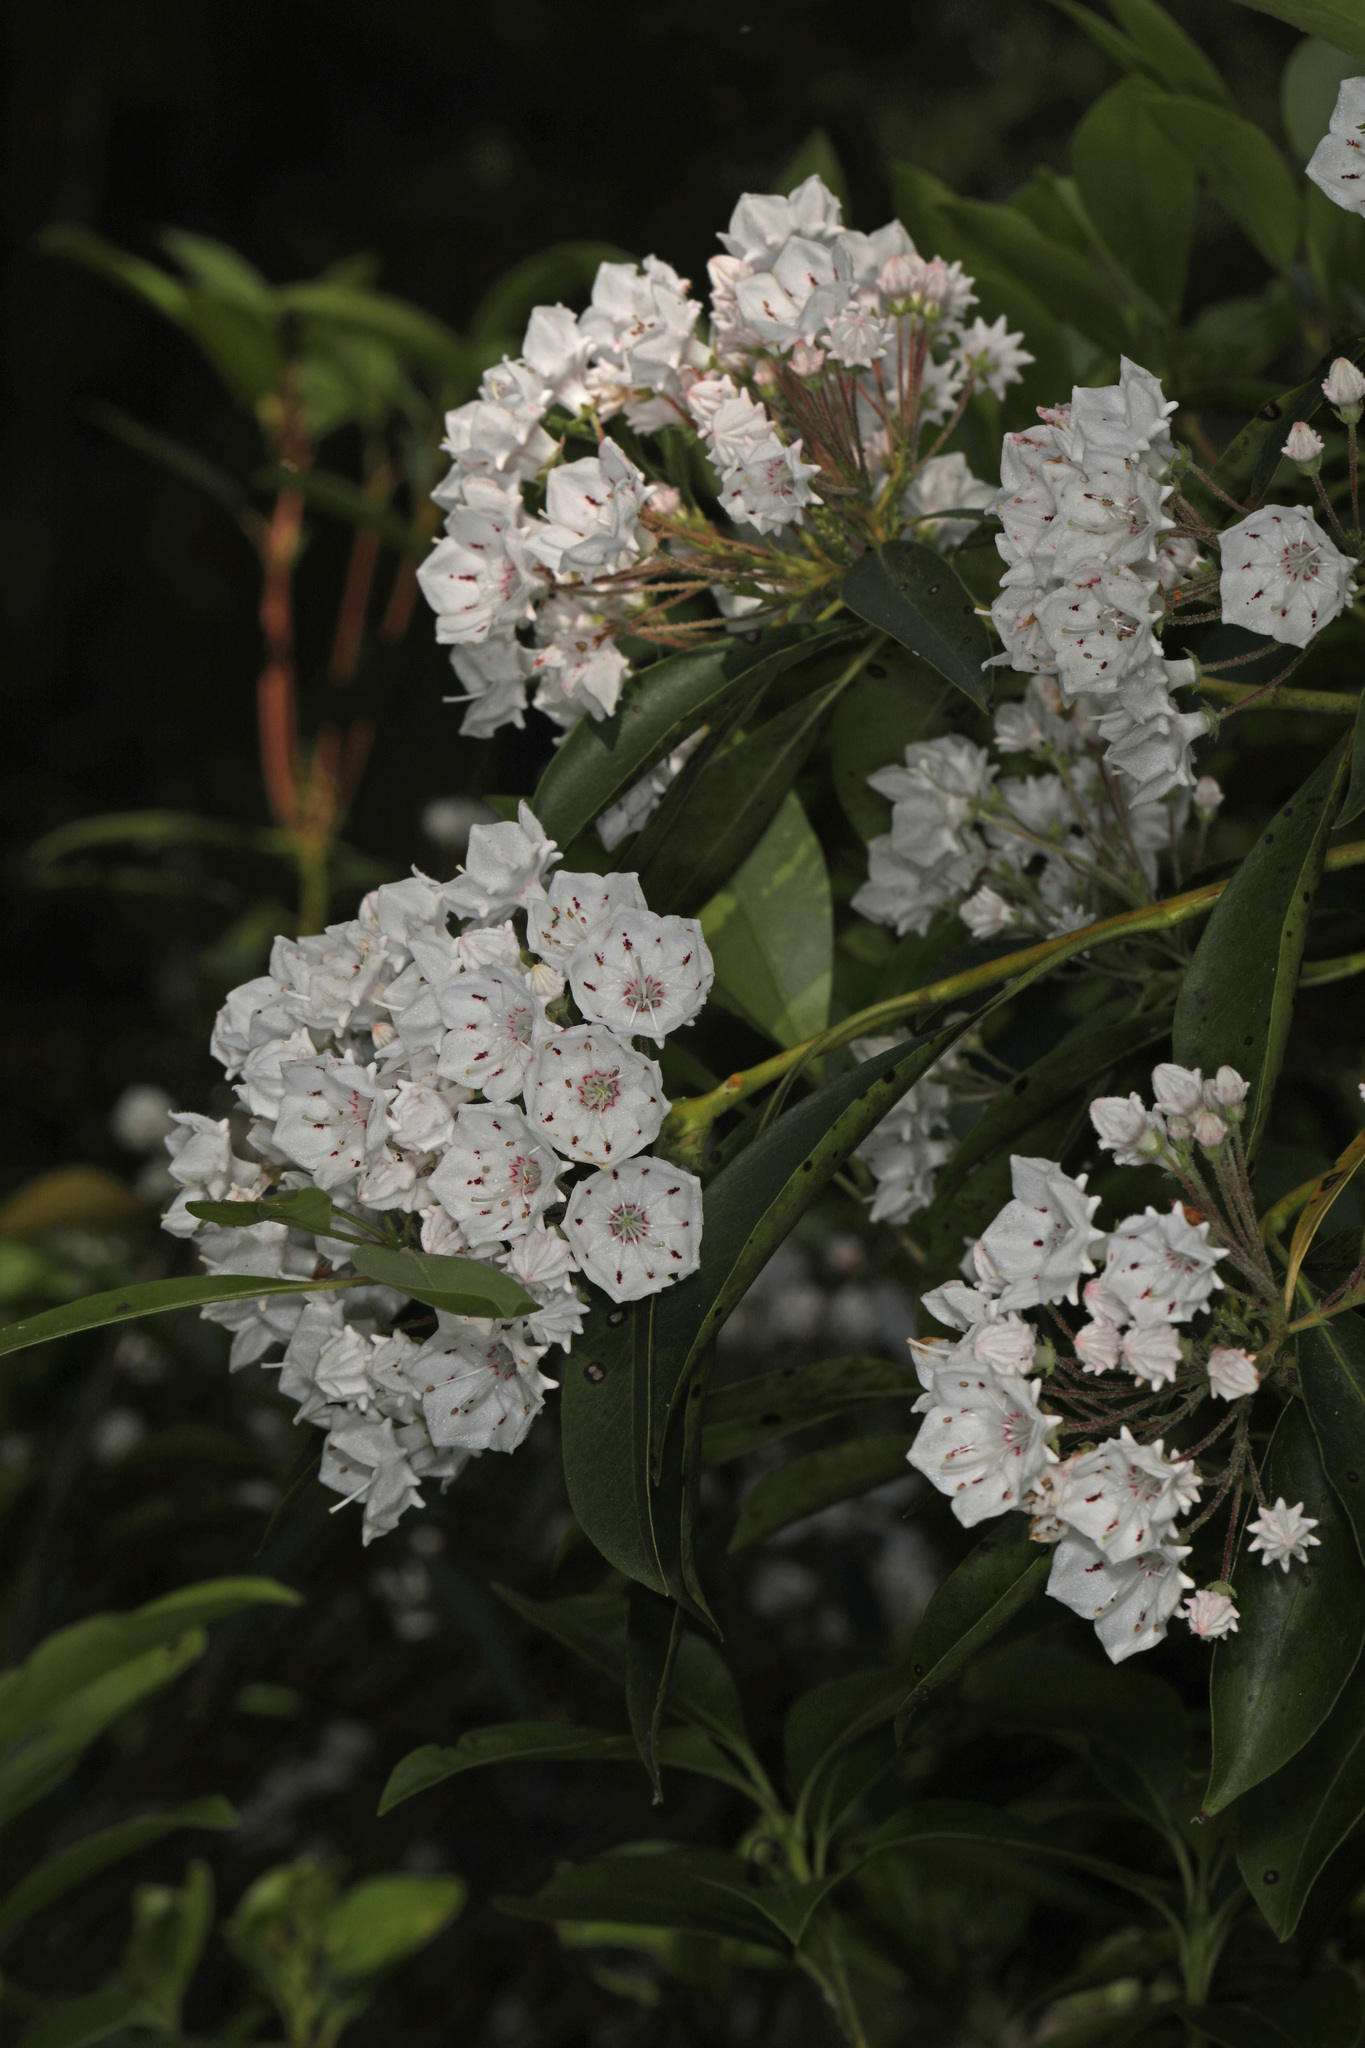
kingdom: Plantae
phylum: Tracheophyta
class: Magnoliopsida
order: Ericales
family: Ericaceae
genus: Kalmia
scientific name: Kalmia latifolia
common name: Mountain-laurel
